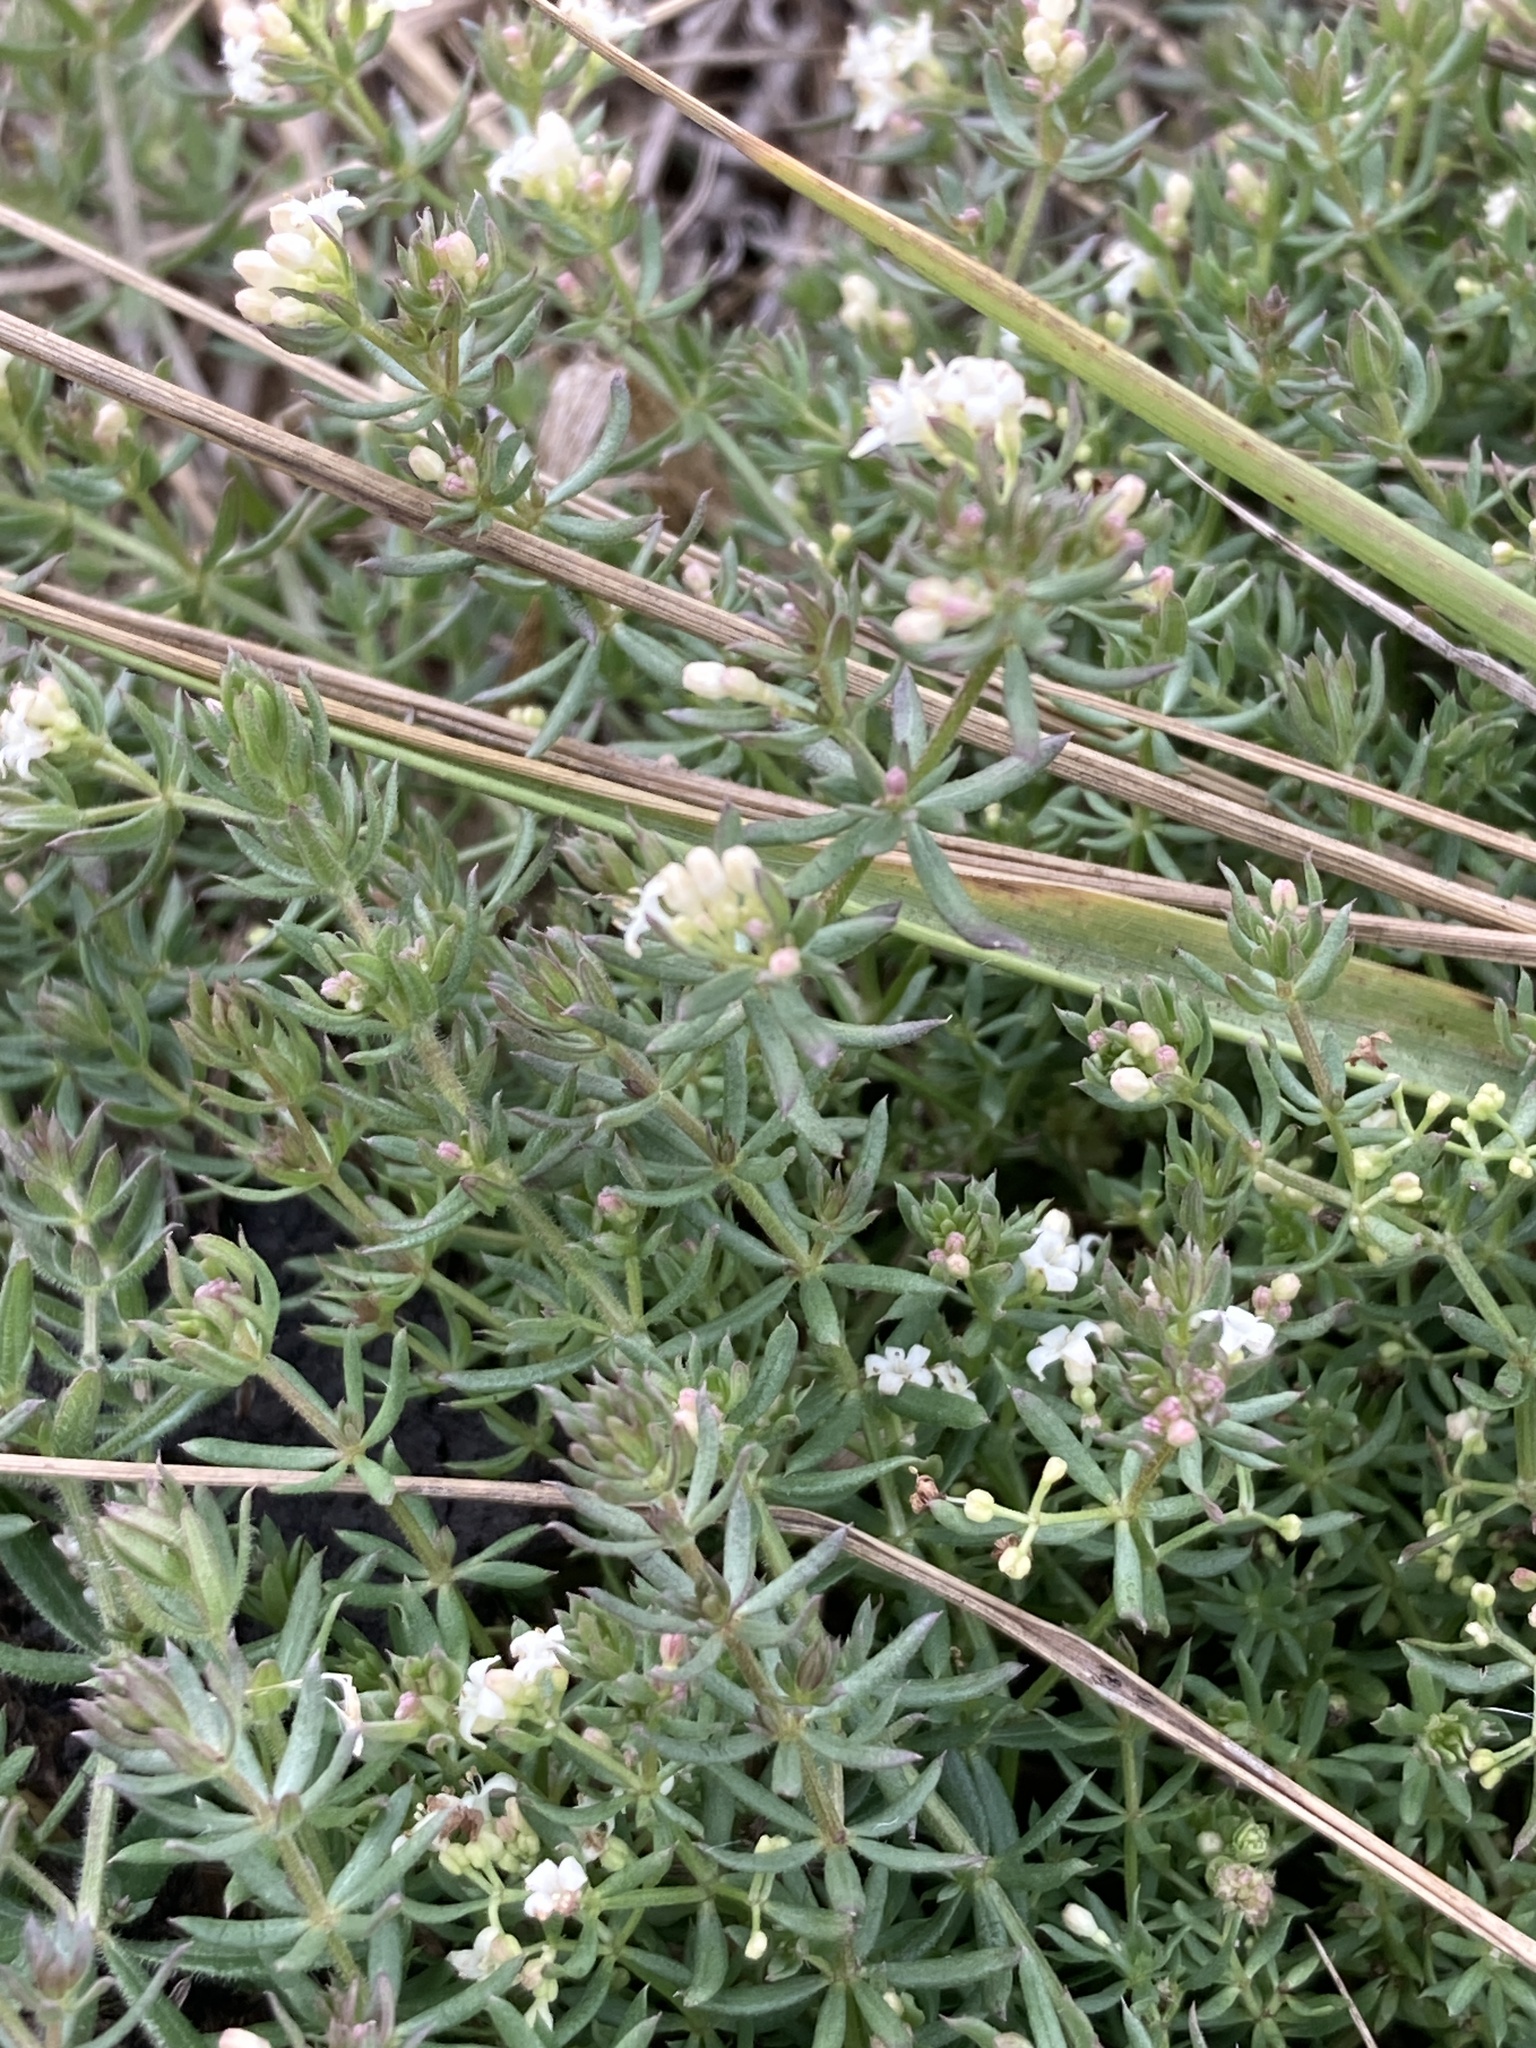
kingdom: Plantae
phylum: Tracheophyta
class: Magnoliopsida
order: Gentianales
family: Rubiaceae
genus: Galium
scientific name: Galium humifusum
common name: Spreading bedstraw
